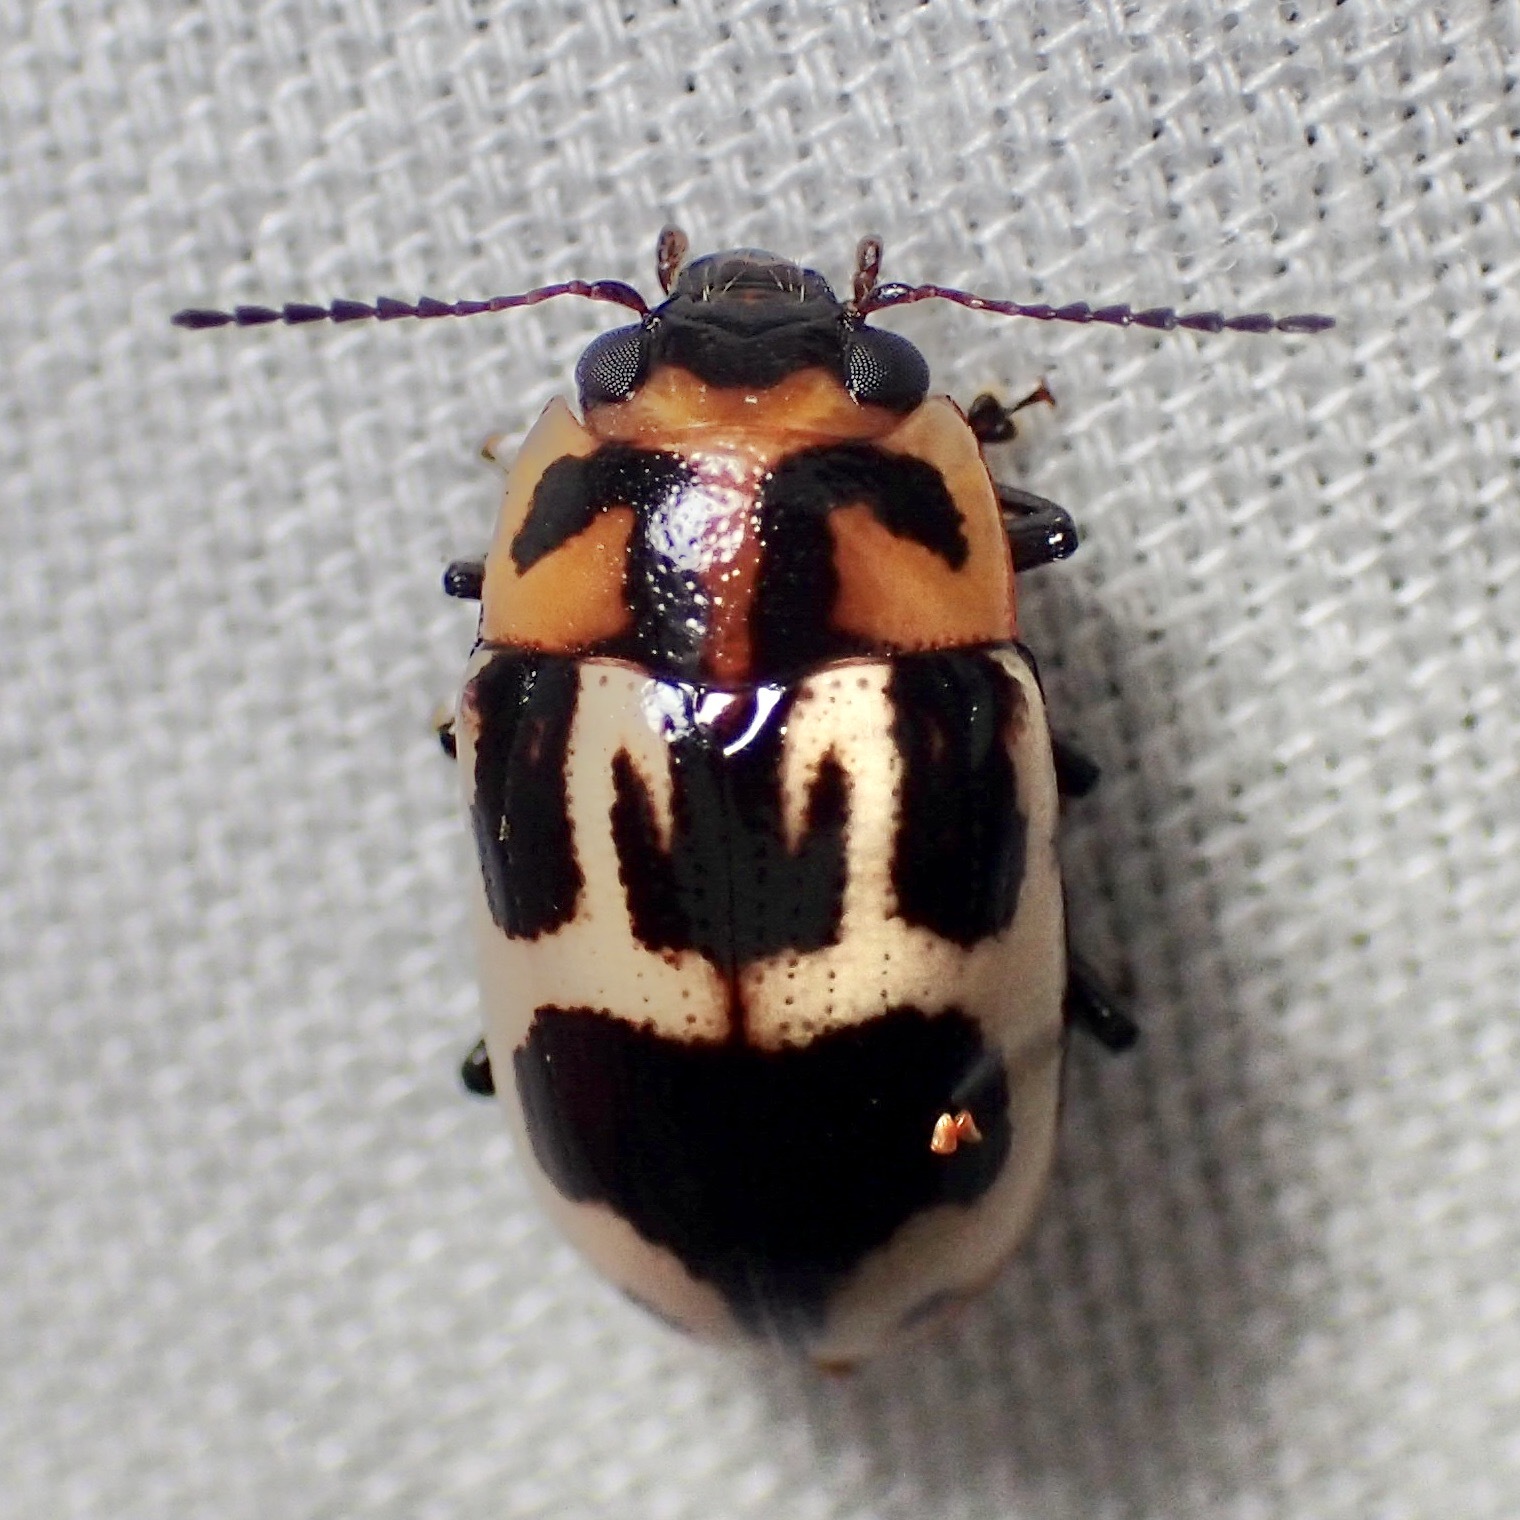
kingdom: Animalia
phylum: Arthropoda
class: Insecta
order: Coleoptera
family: Chrysomelidae
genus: Platymela
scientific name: Platymela
